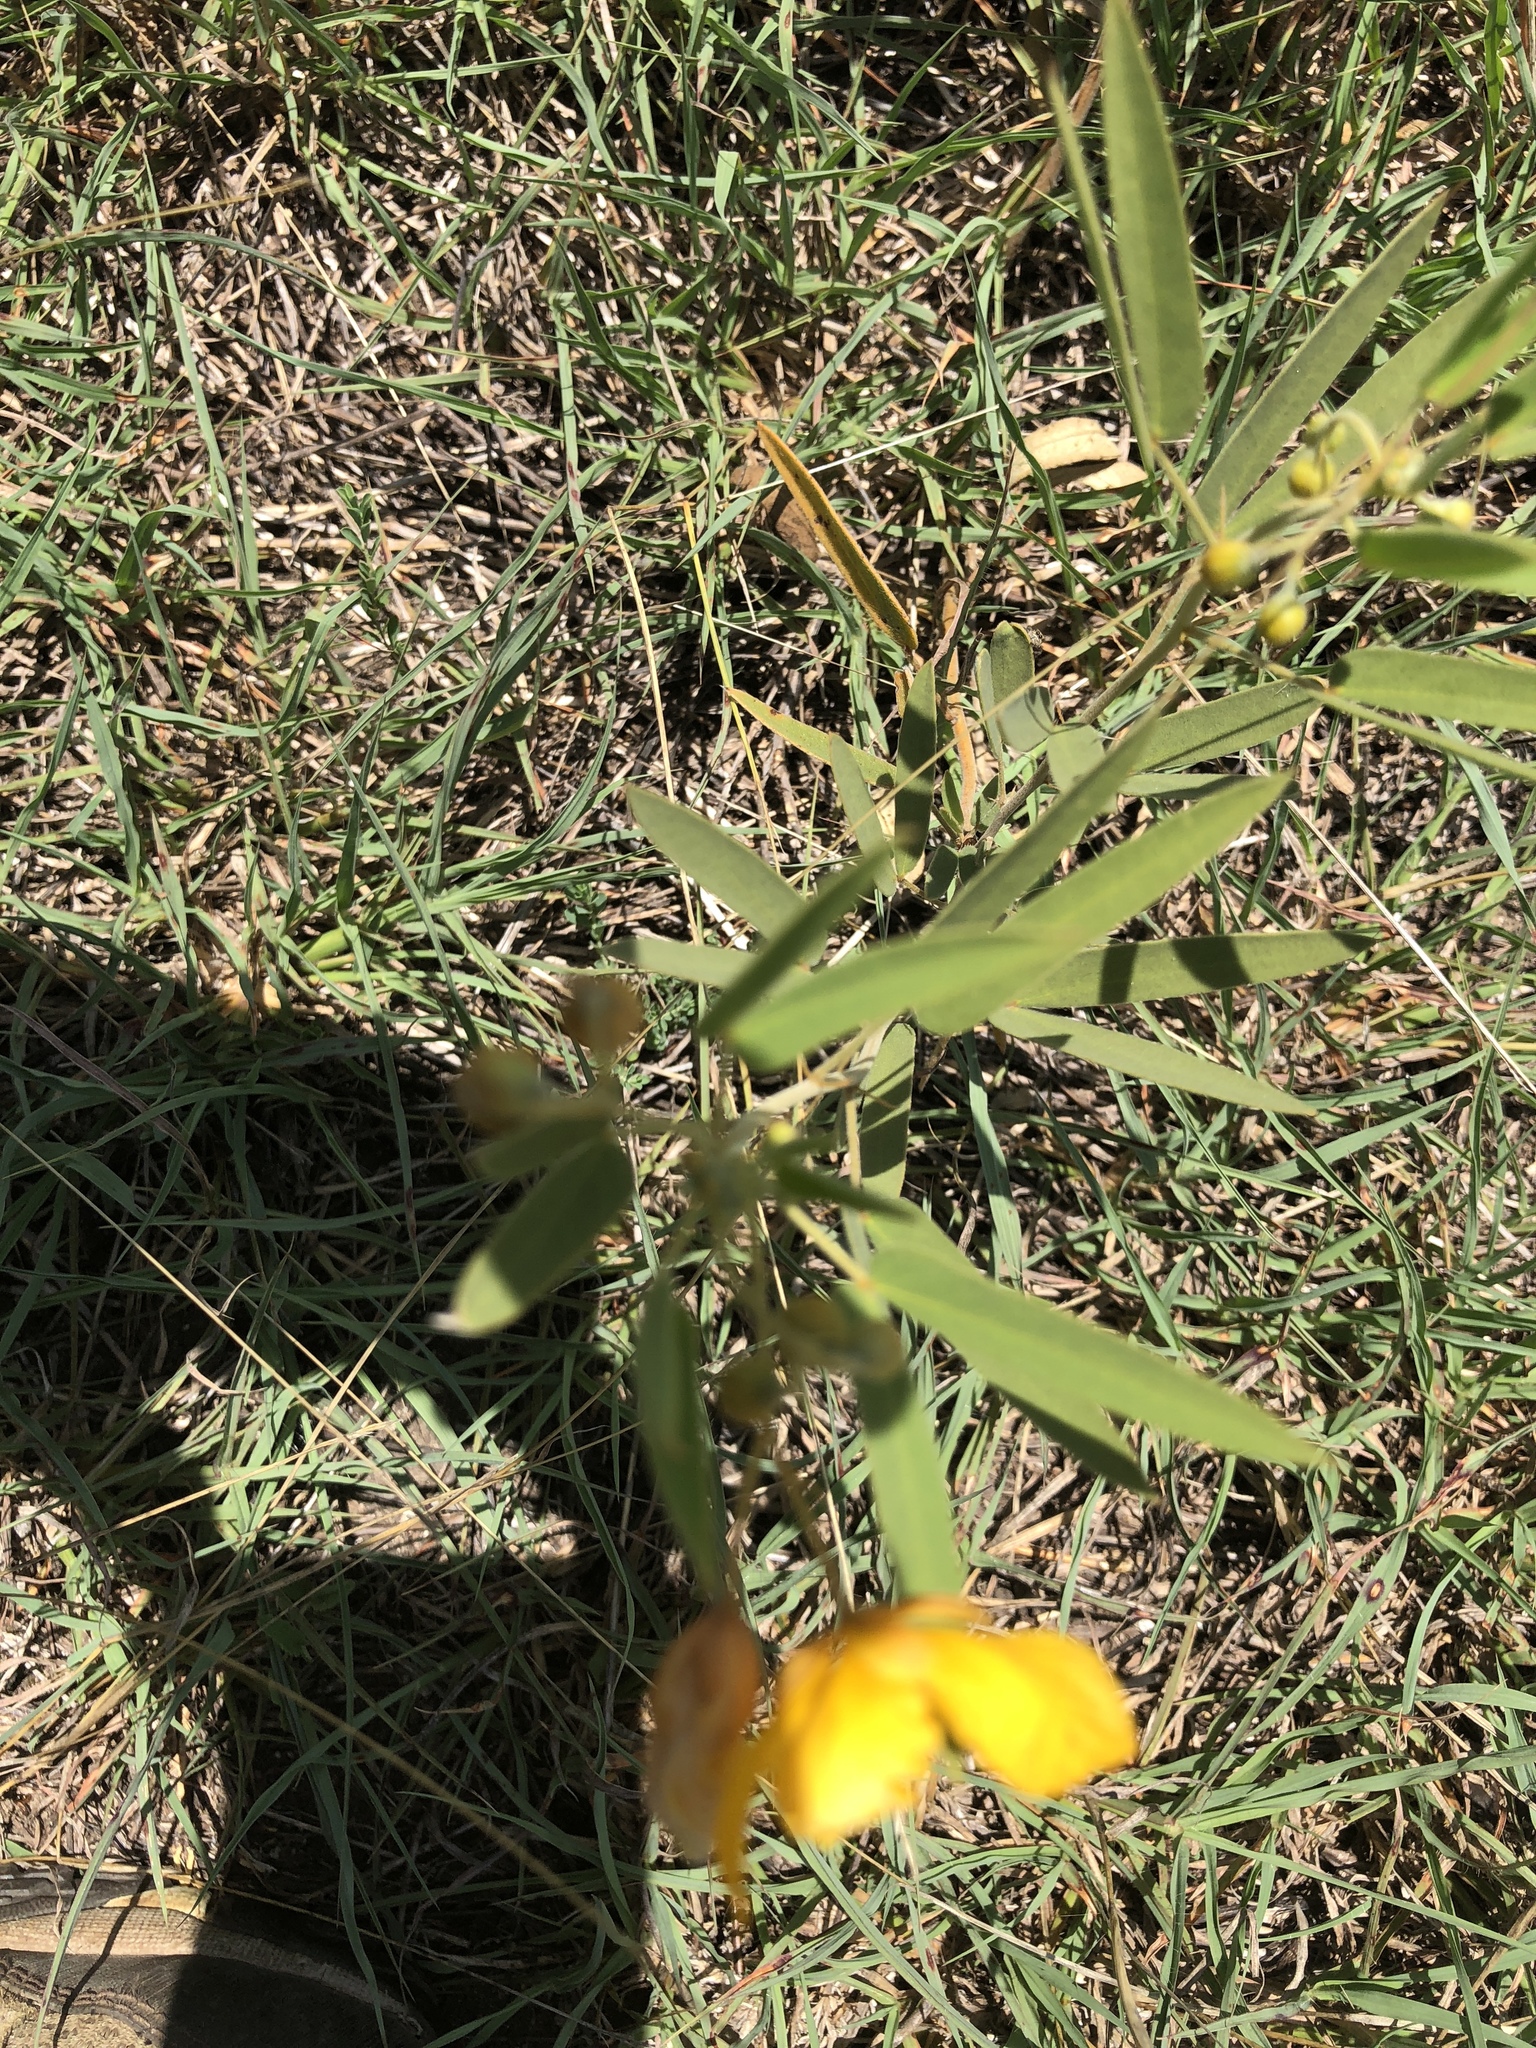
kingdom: Plantae
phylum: Tracheophyta
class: Magnoliopsida
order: Fabales
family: Fabaceae
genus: Senna
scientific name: Senna roemeriana
